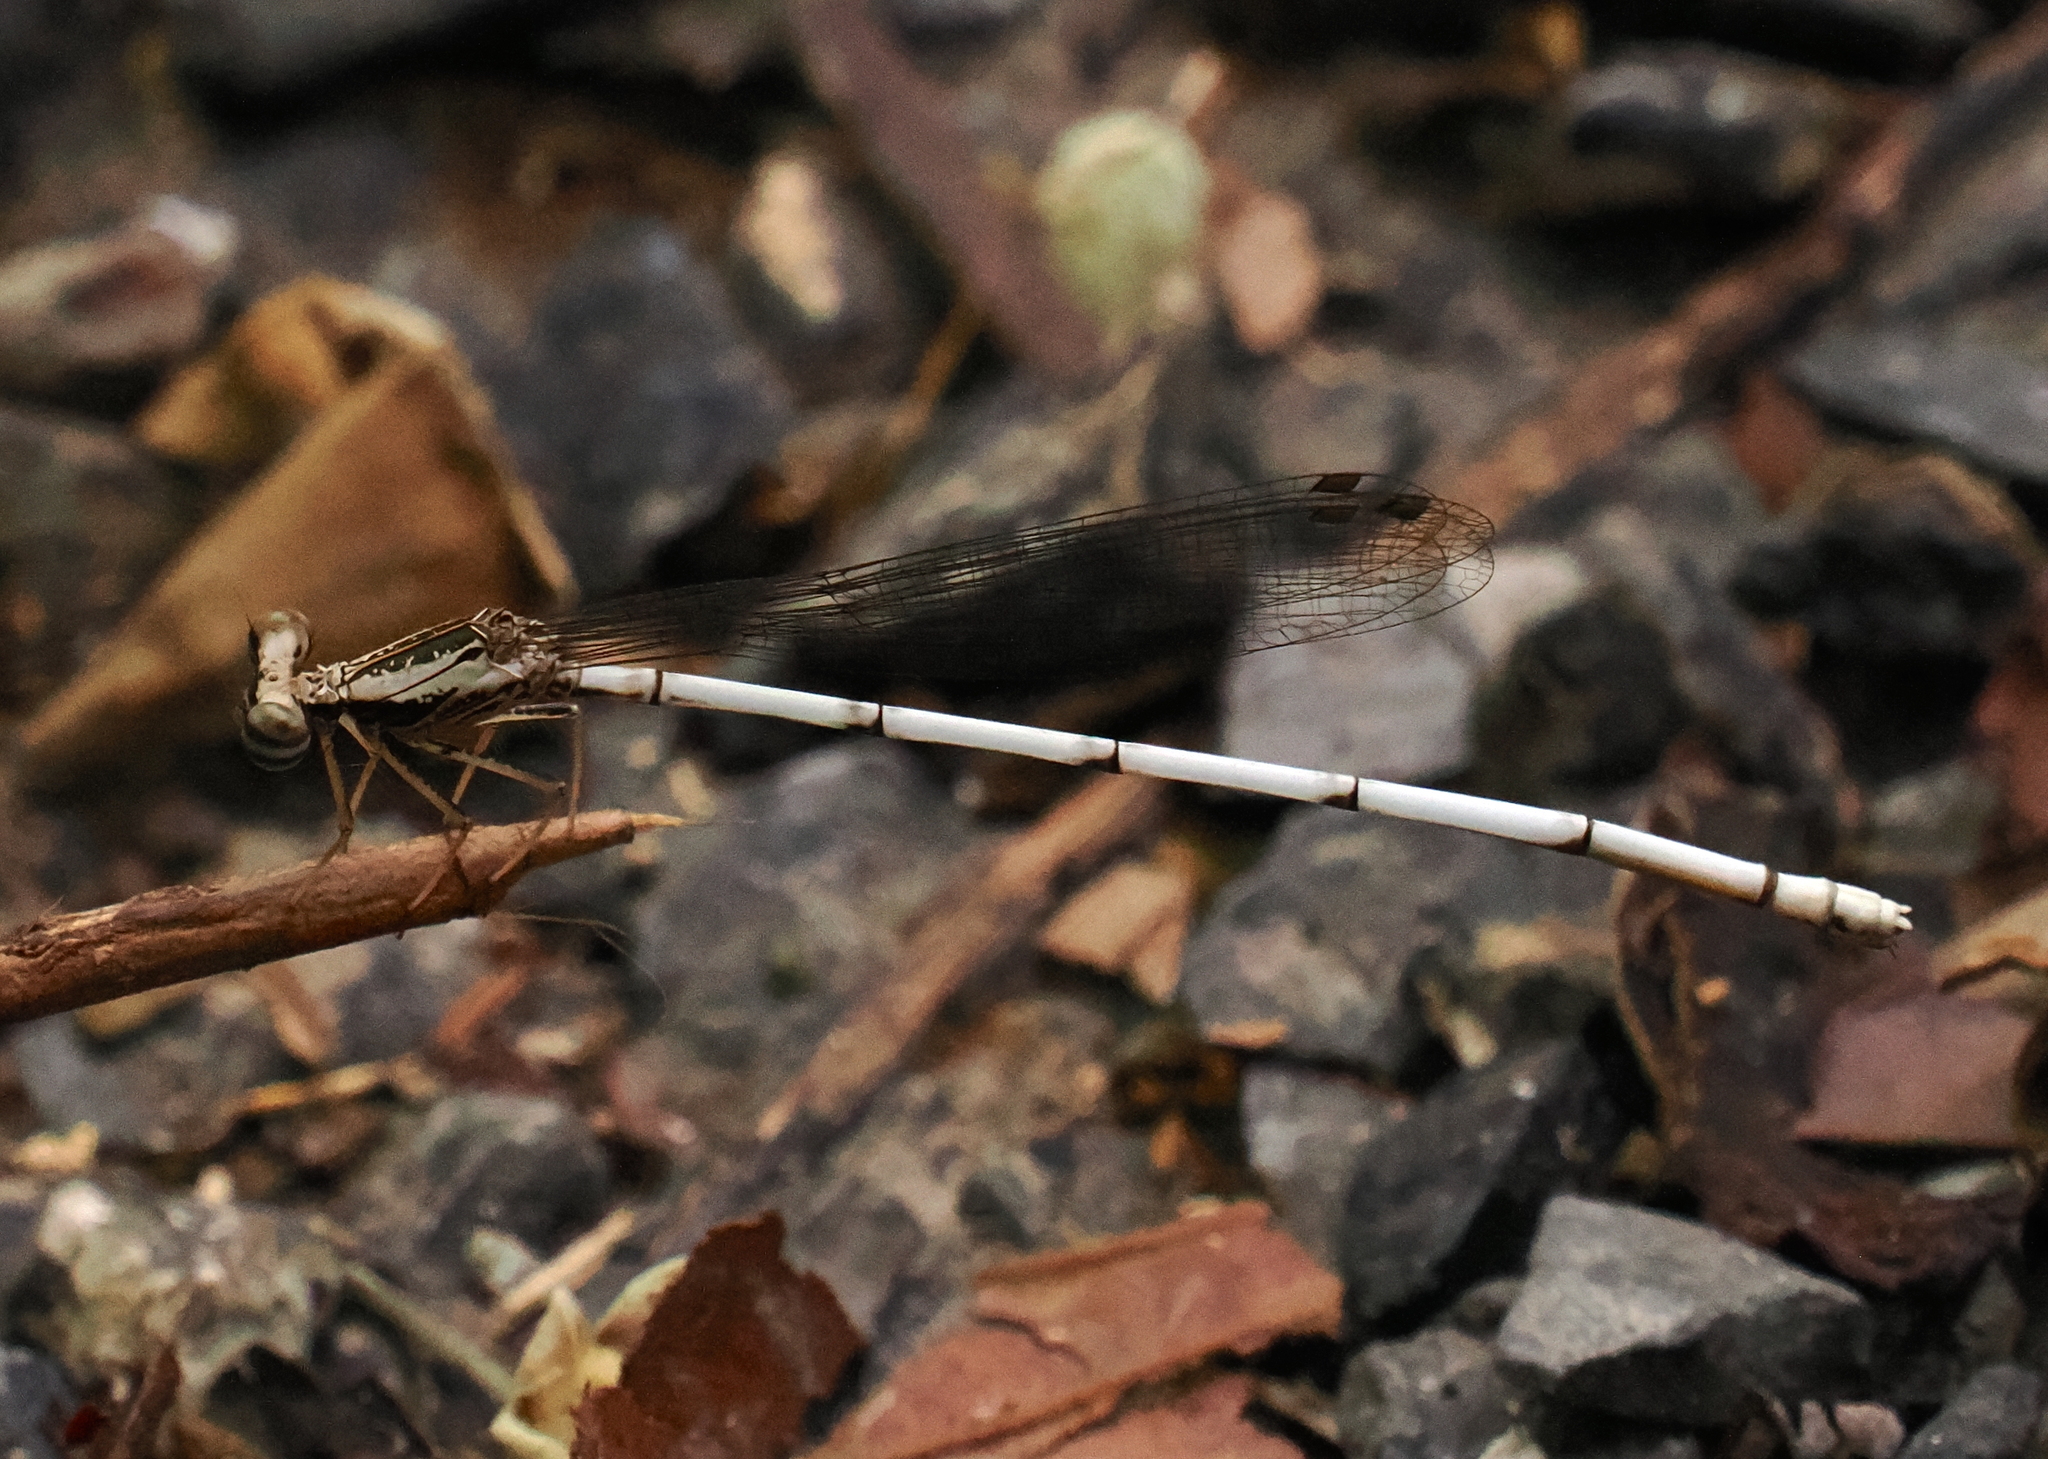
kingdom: Animalia
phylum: Arthropoda
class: Insecta
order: Odonata
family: Platycnemididae
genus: Copera
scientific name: Copera vittata
